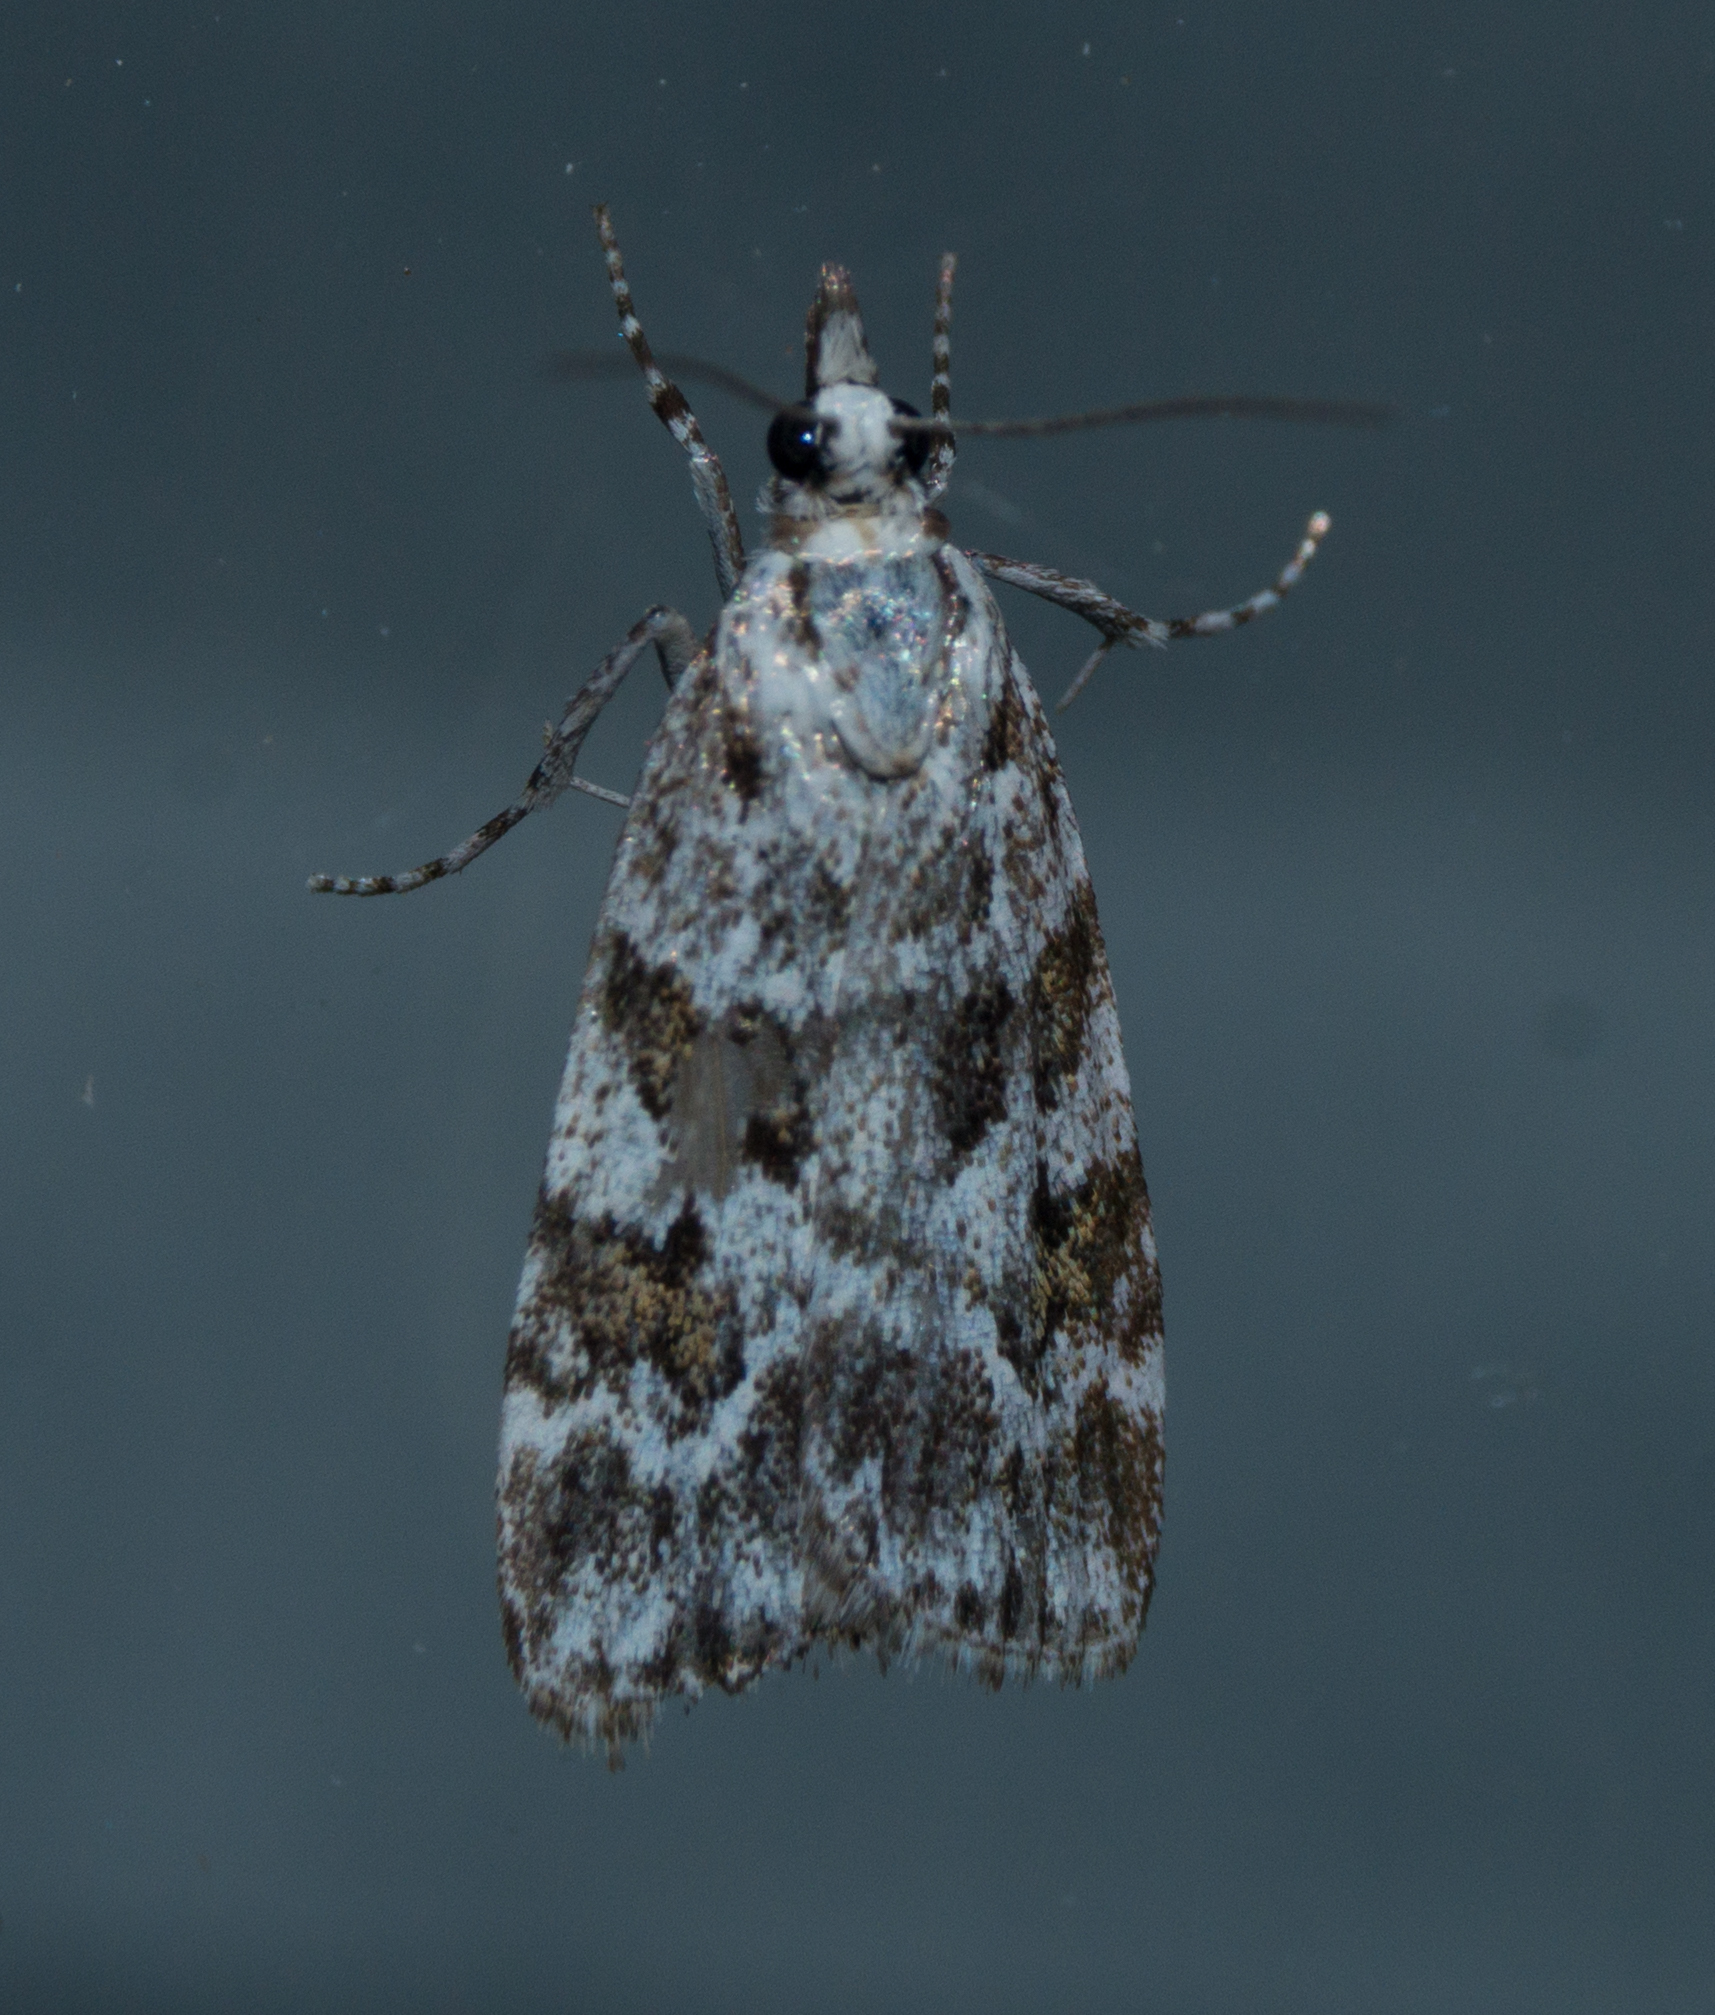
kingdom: Animalia
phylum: Arthropoda
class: Insecta
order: Lepidoptera
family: Crambidae
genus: Scoparia
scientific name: Scoparia pyralella
